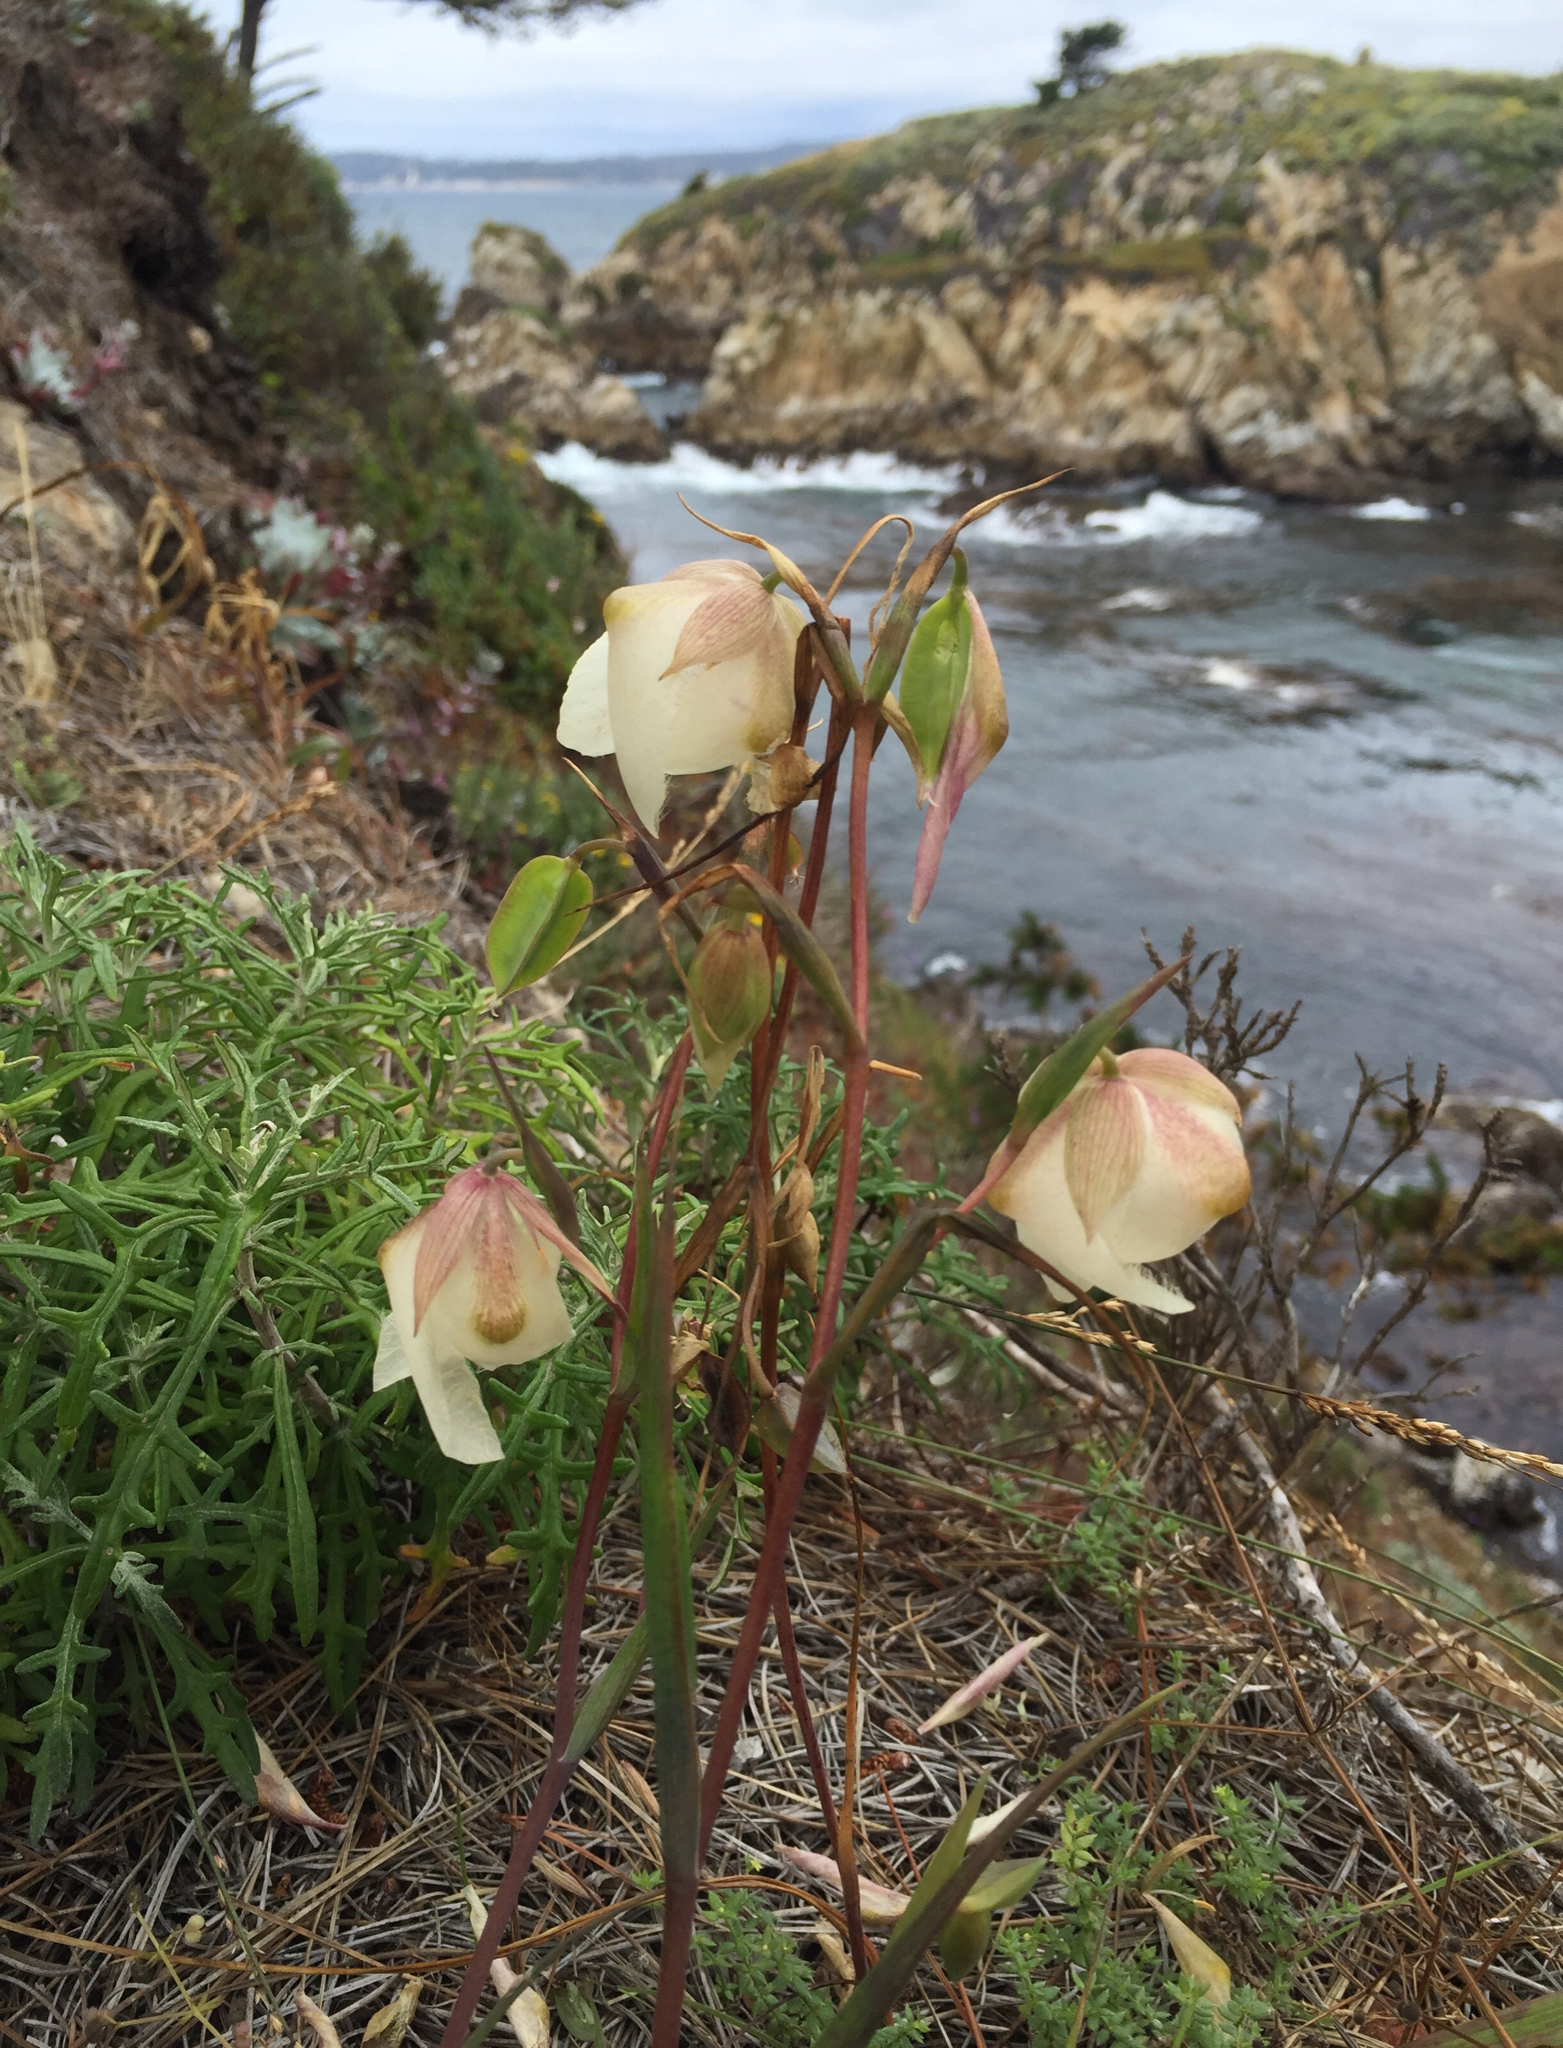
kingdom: Plantae
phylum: Tracheophyta
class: Liliopsida
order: Liliales
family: Liliaceae
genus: Calochortus
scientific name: Calochortus albus
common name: Fairy-lantern
